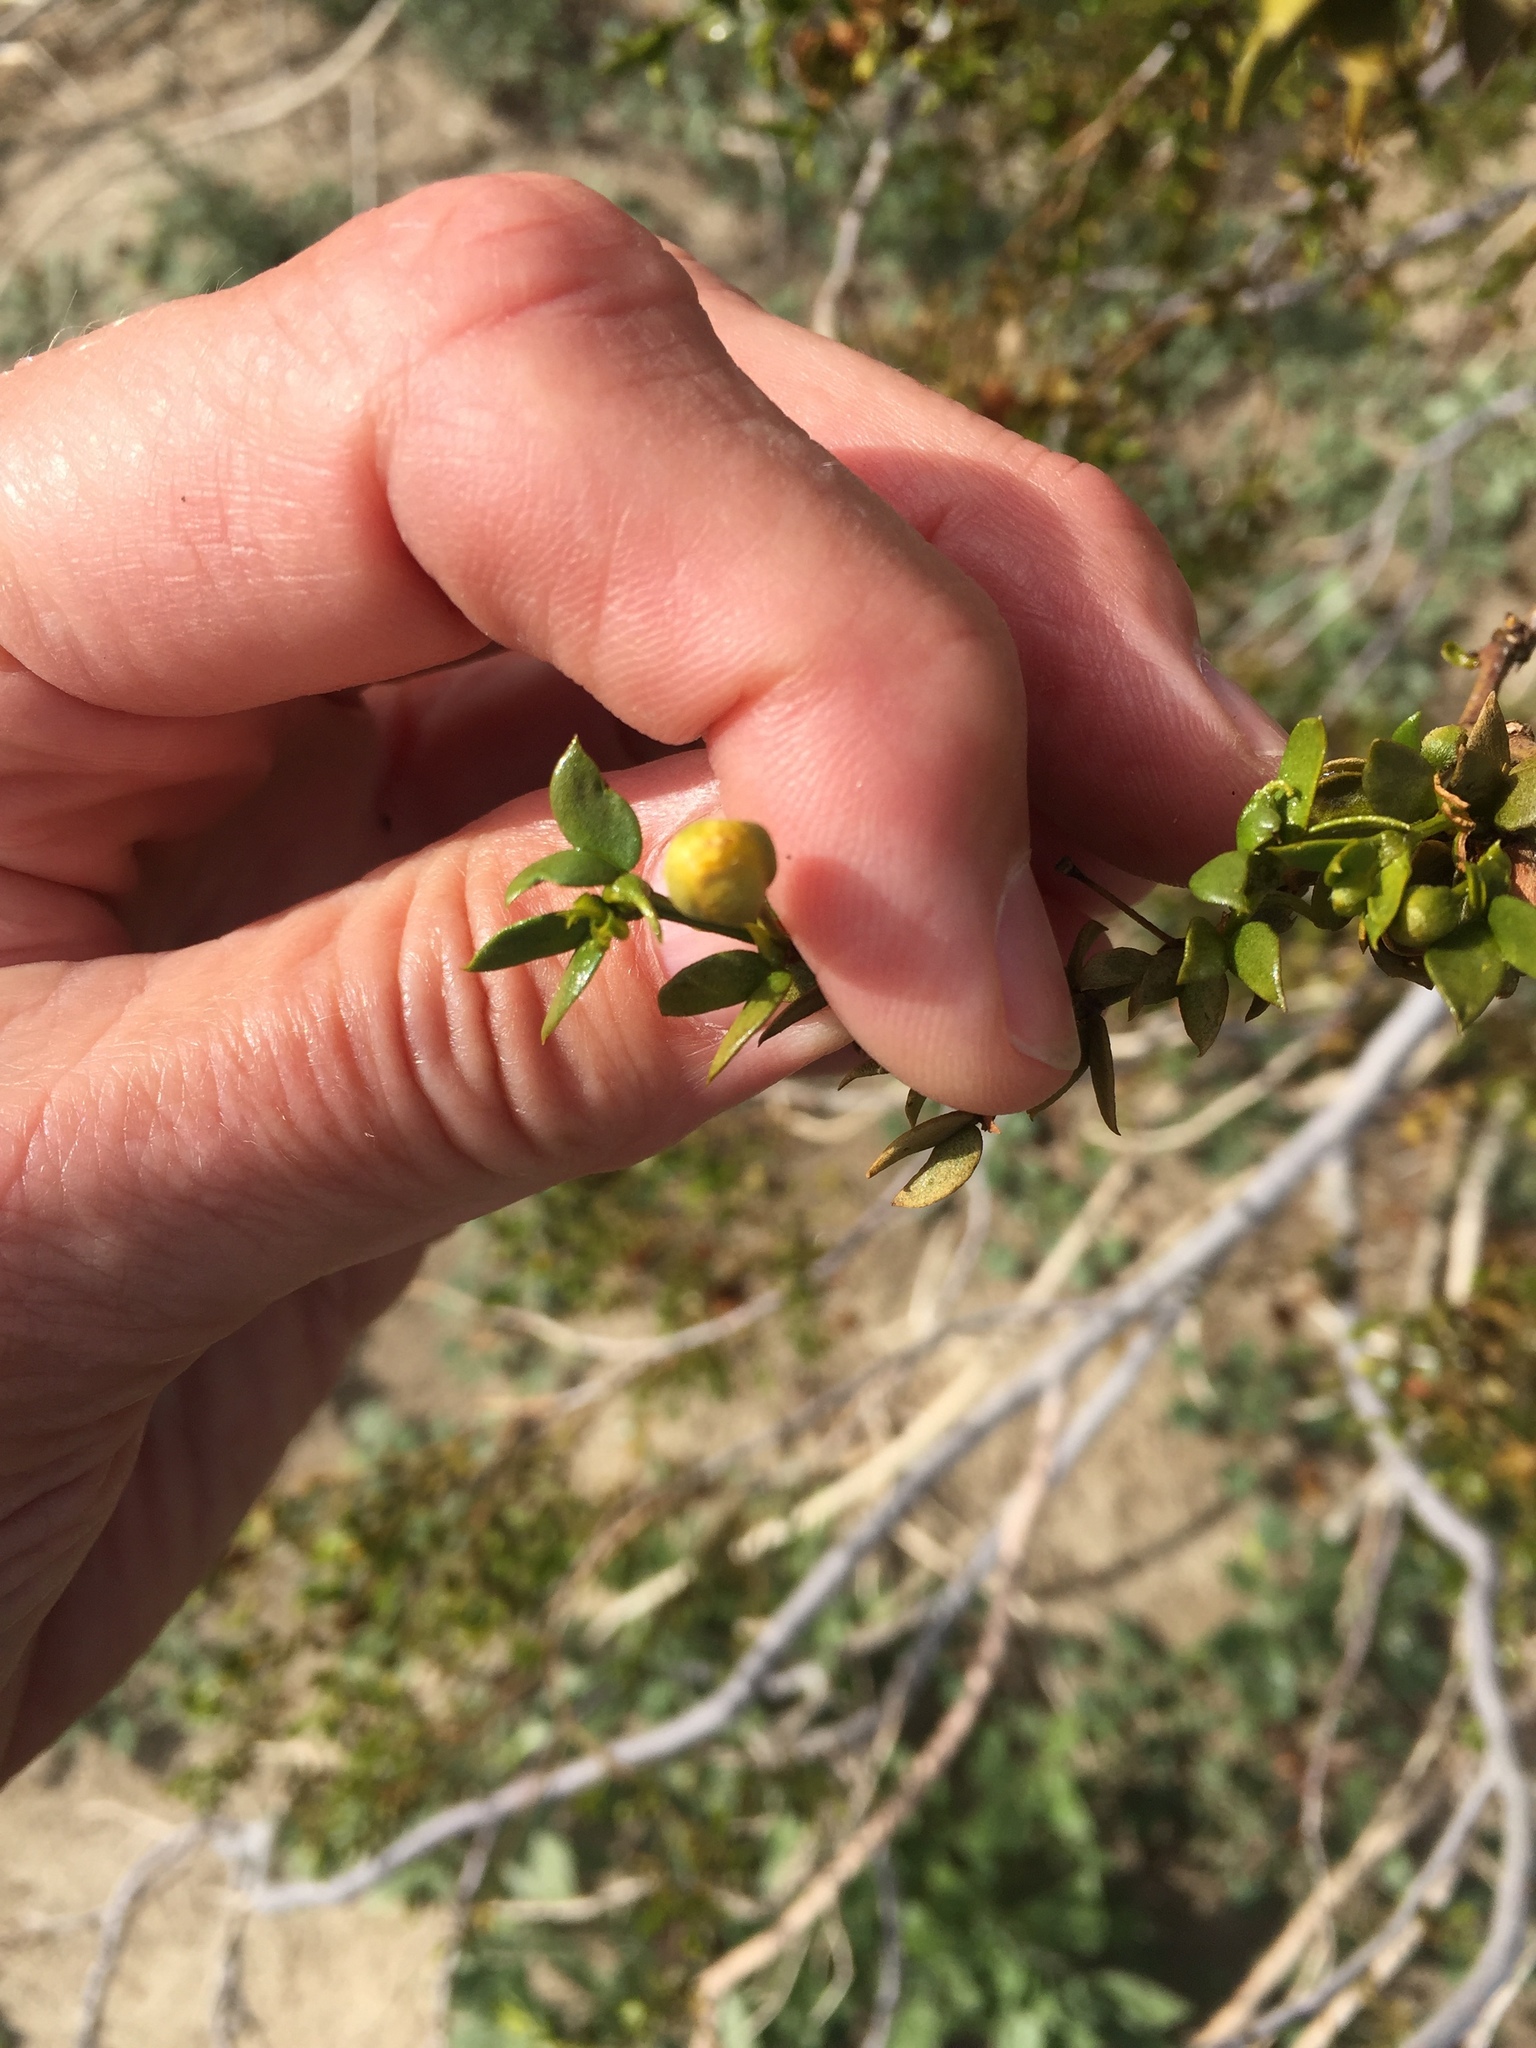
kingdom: Plantae
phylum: Tracheophyta
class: Magnoliopsida
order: Zygophyllales
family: Zygophyllaceae
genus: Larrea
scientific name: Larrea tridentata
